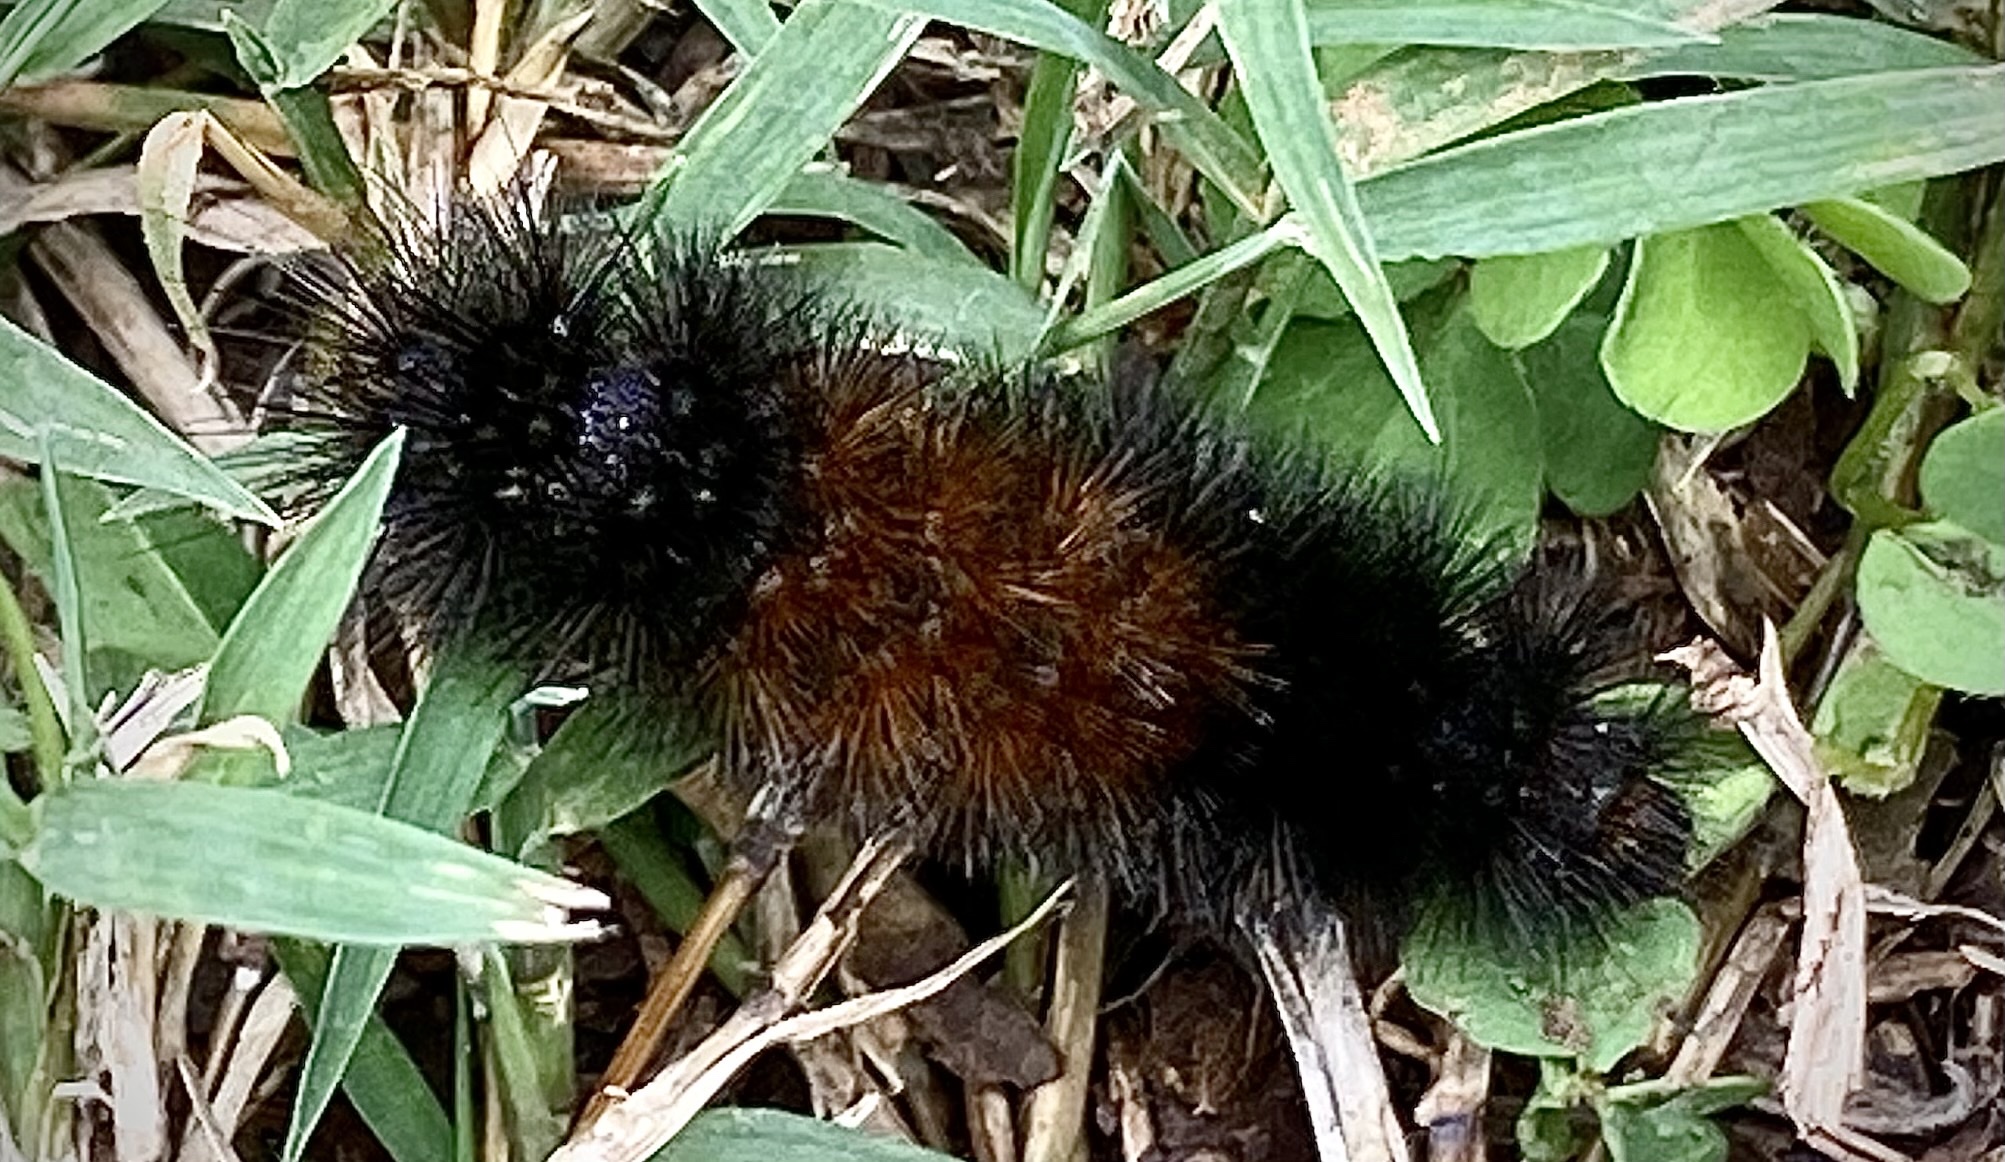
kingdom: Animalia
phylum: Arthropoda
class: Insecta
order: Lepidoptera
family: Erebidae
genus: Pyrrharctia
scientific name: Pyrrharctia isabella
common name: Isabella tiger moth
